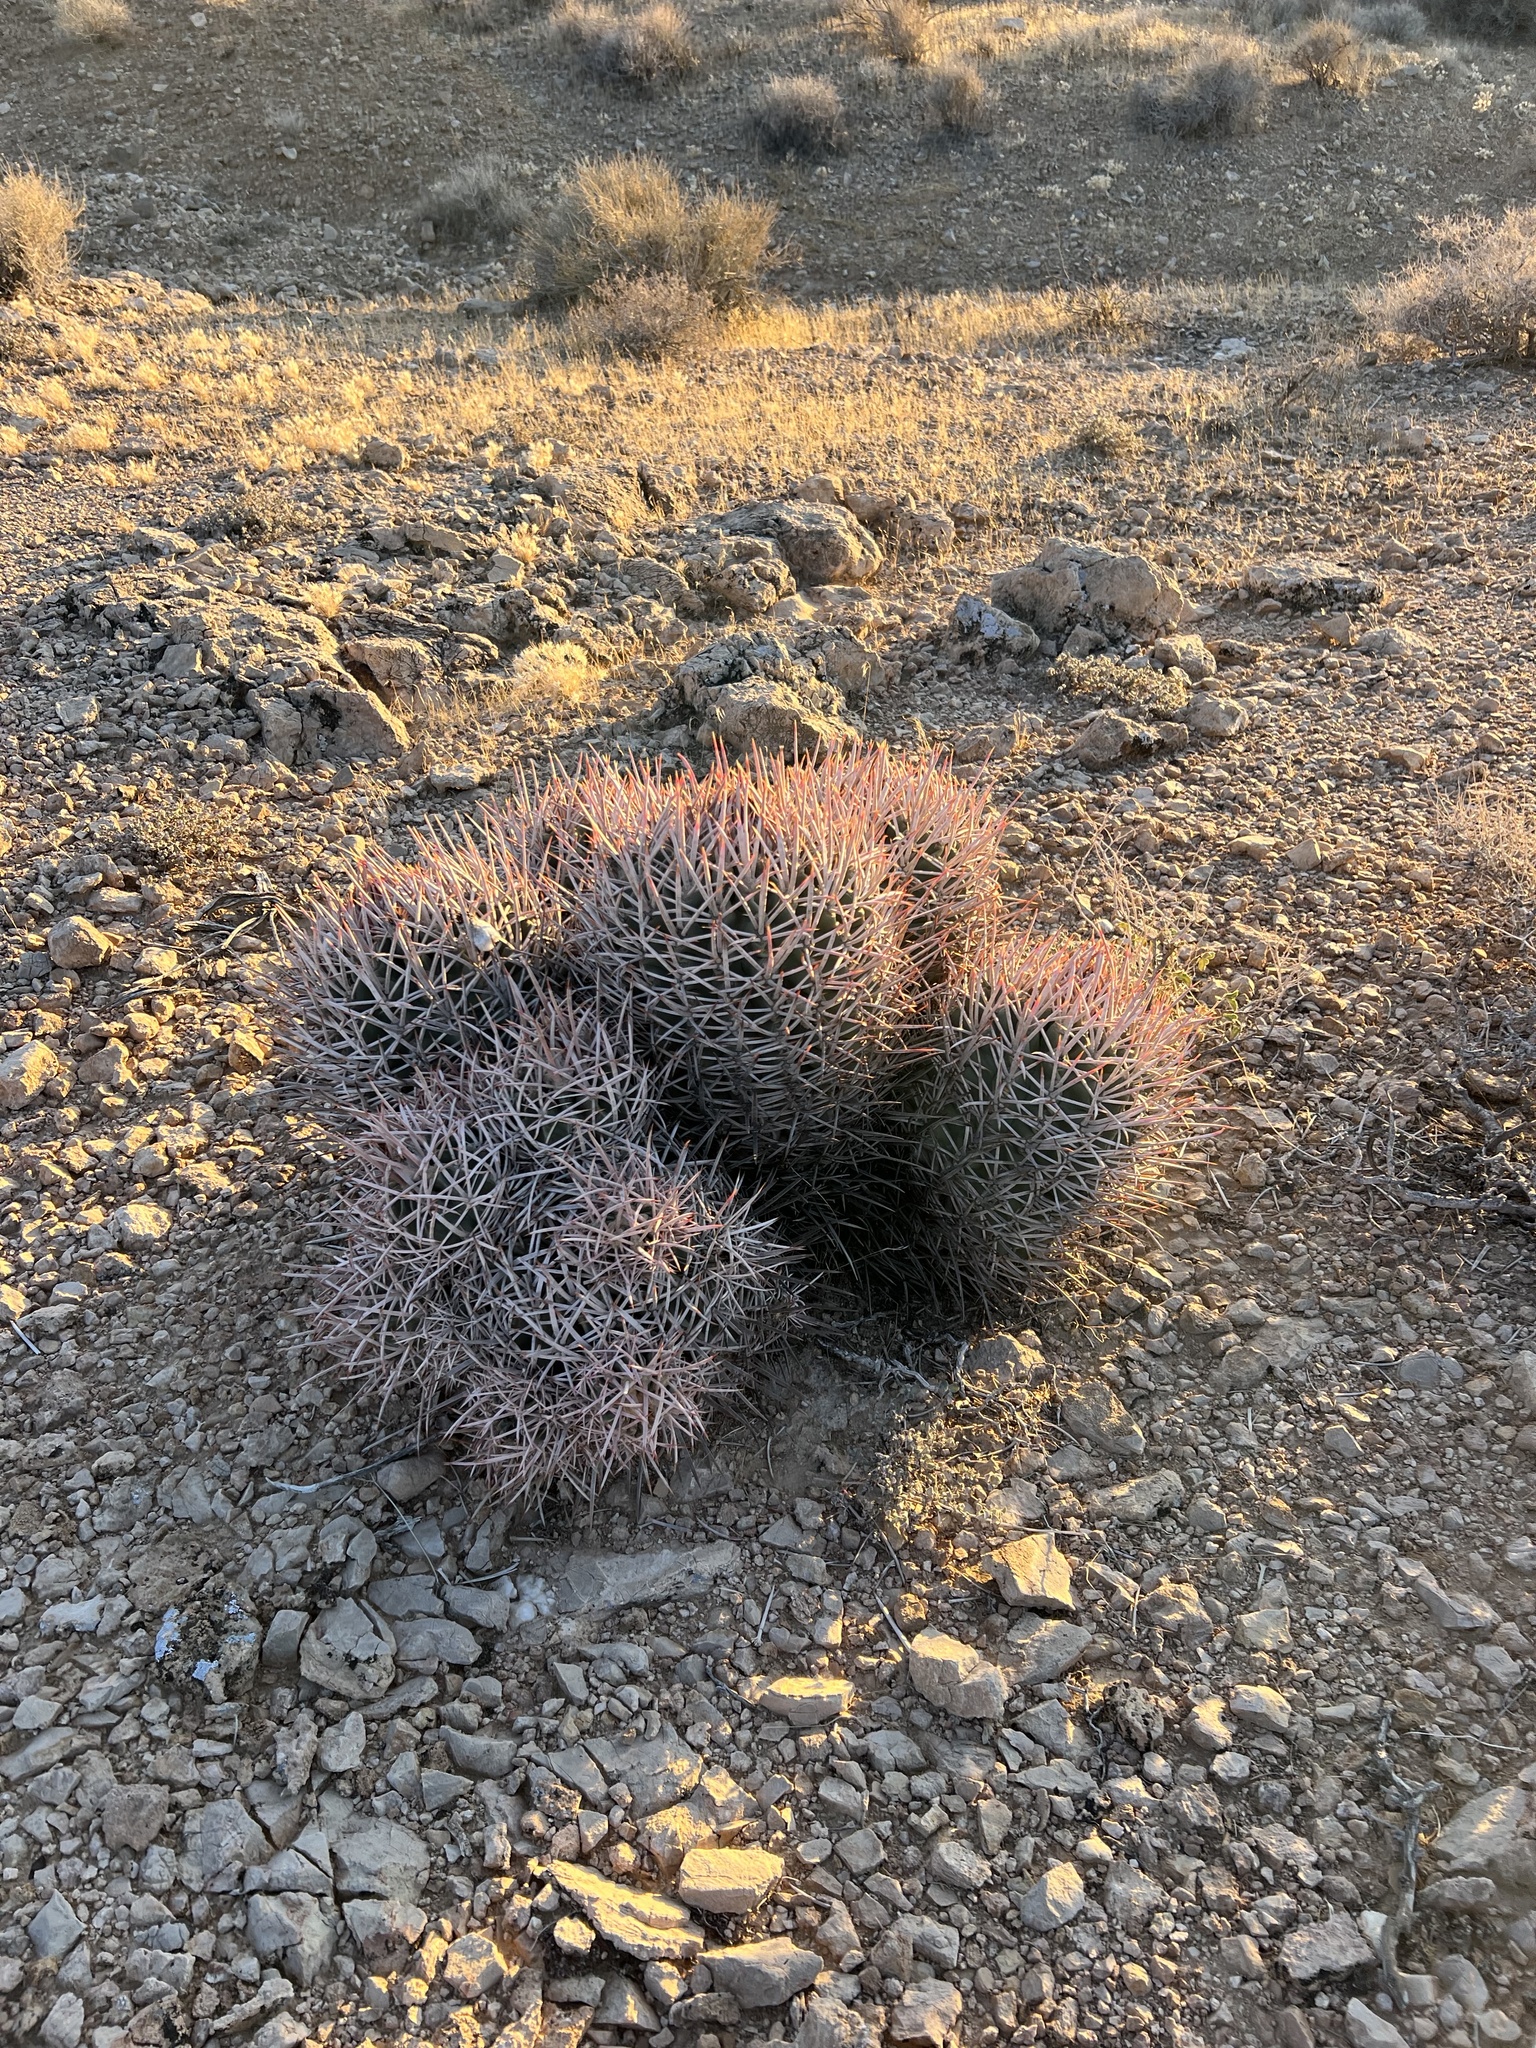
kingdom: Plantae
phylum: Tracheophyta
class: Magnoliopsida
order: Caryophyllales
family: Cactaceae
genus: Echinocactus
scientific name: Echinocactus polycephalus
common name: Cottontop cactus
